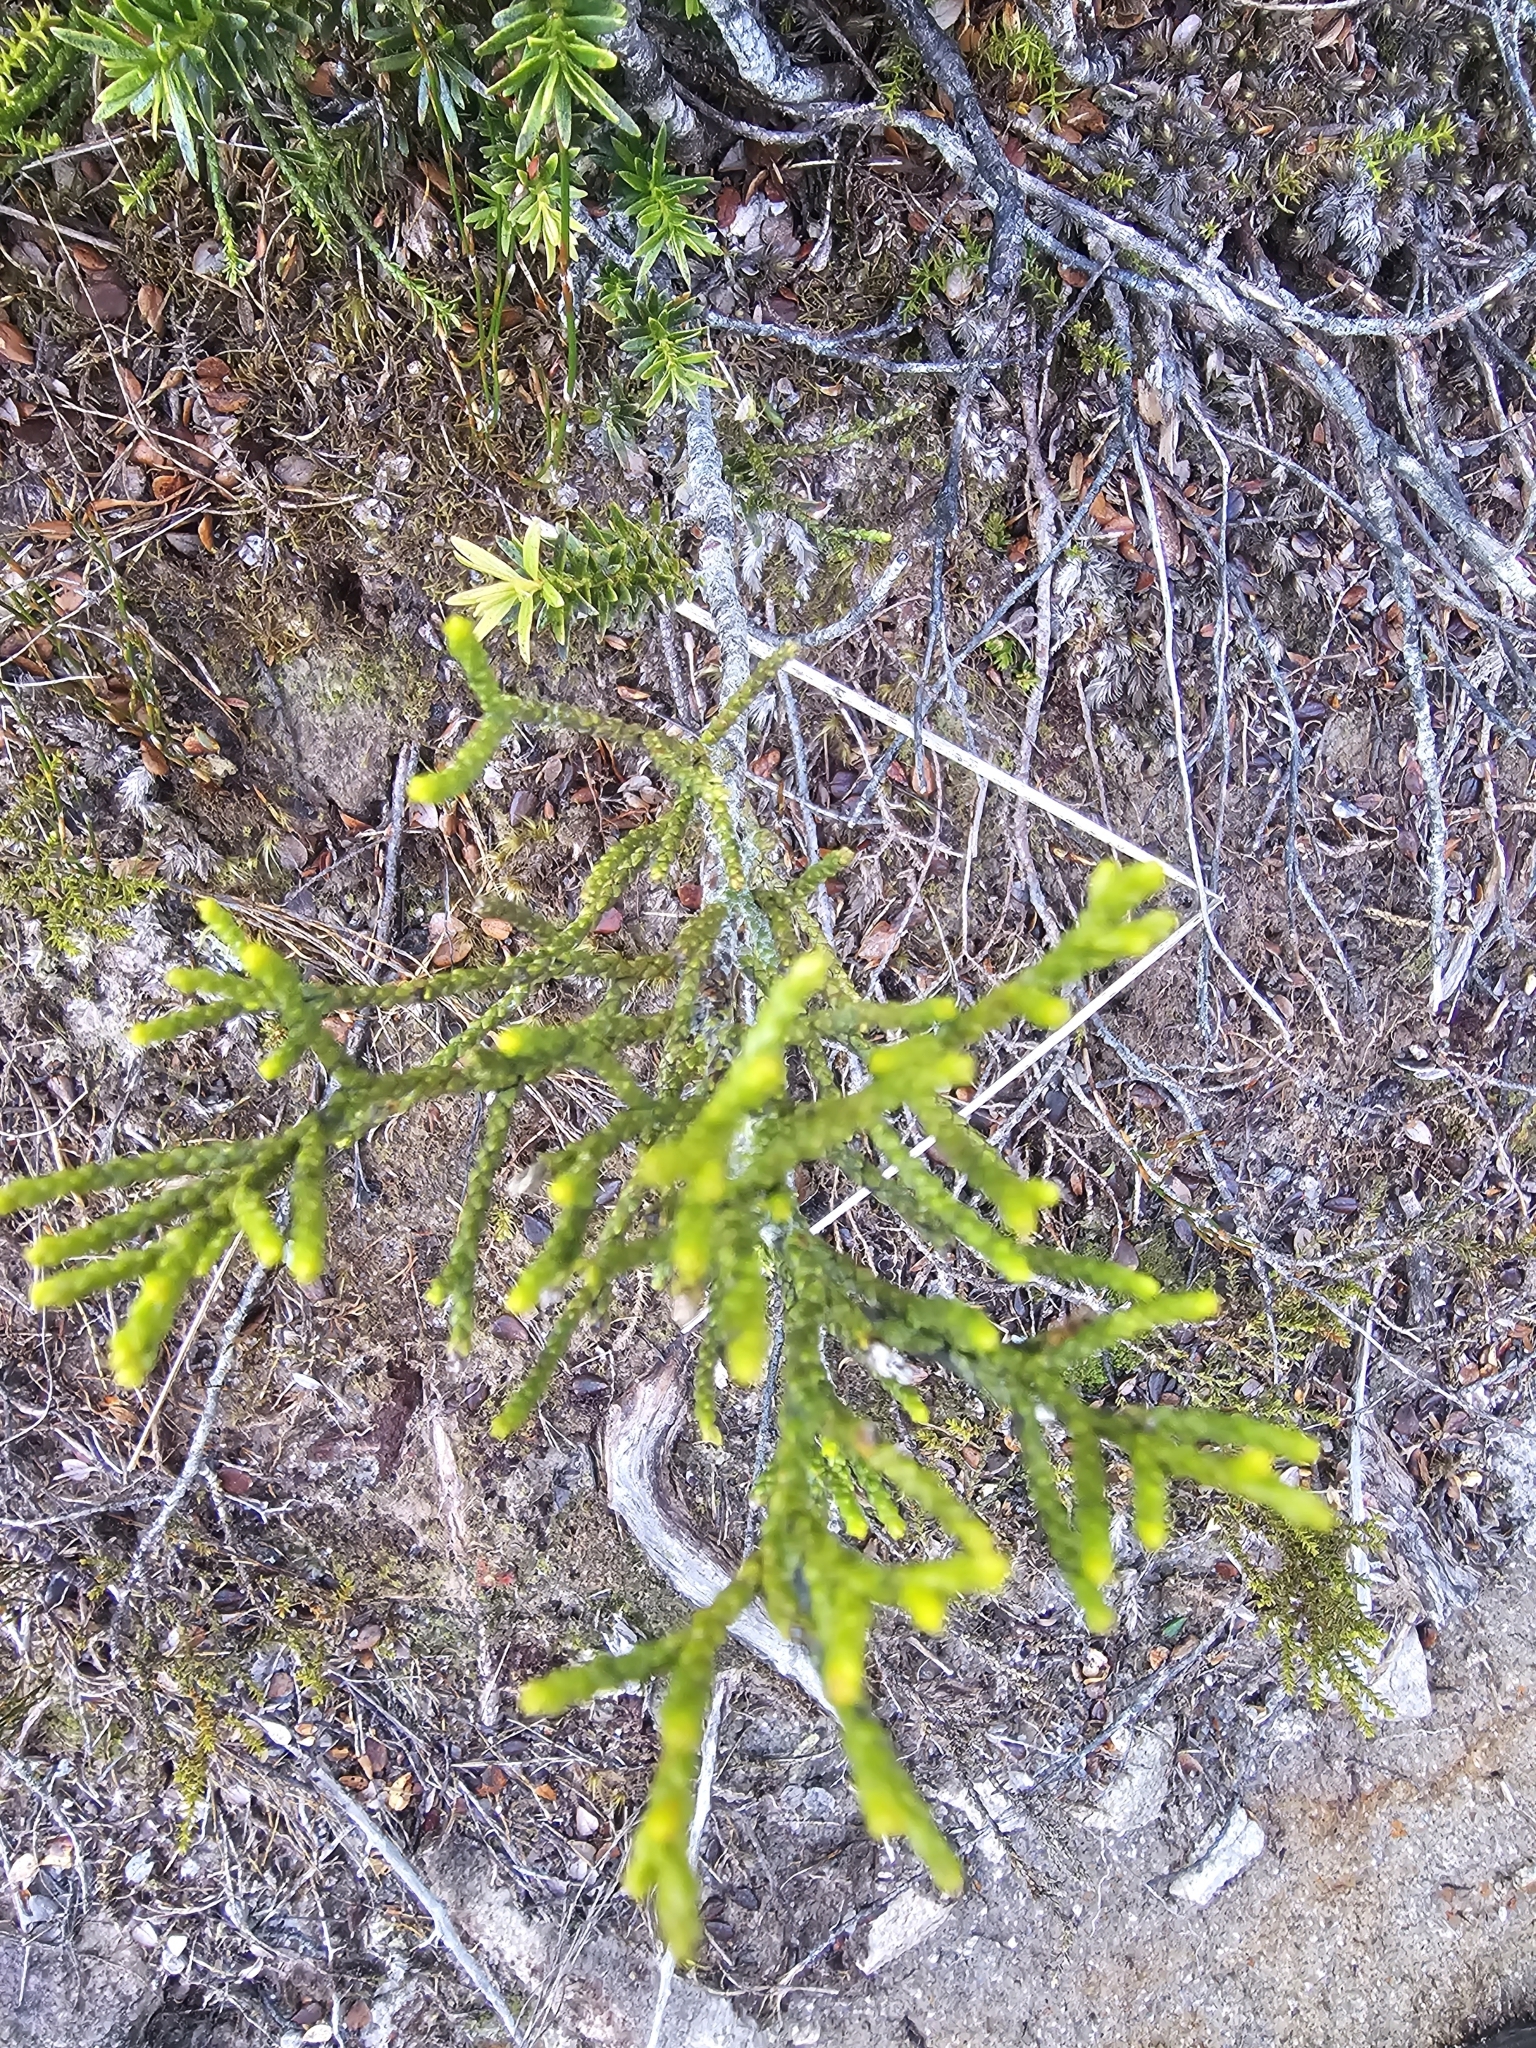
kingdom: Plantae
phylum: Tracheophyta
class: Pinopsida
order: Pinales
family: Podocarpaceae
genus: Halocarpus
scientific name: Halocarpus biformis
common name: Alpine tarwood
